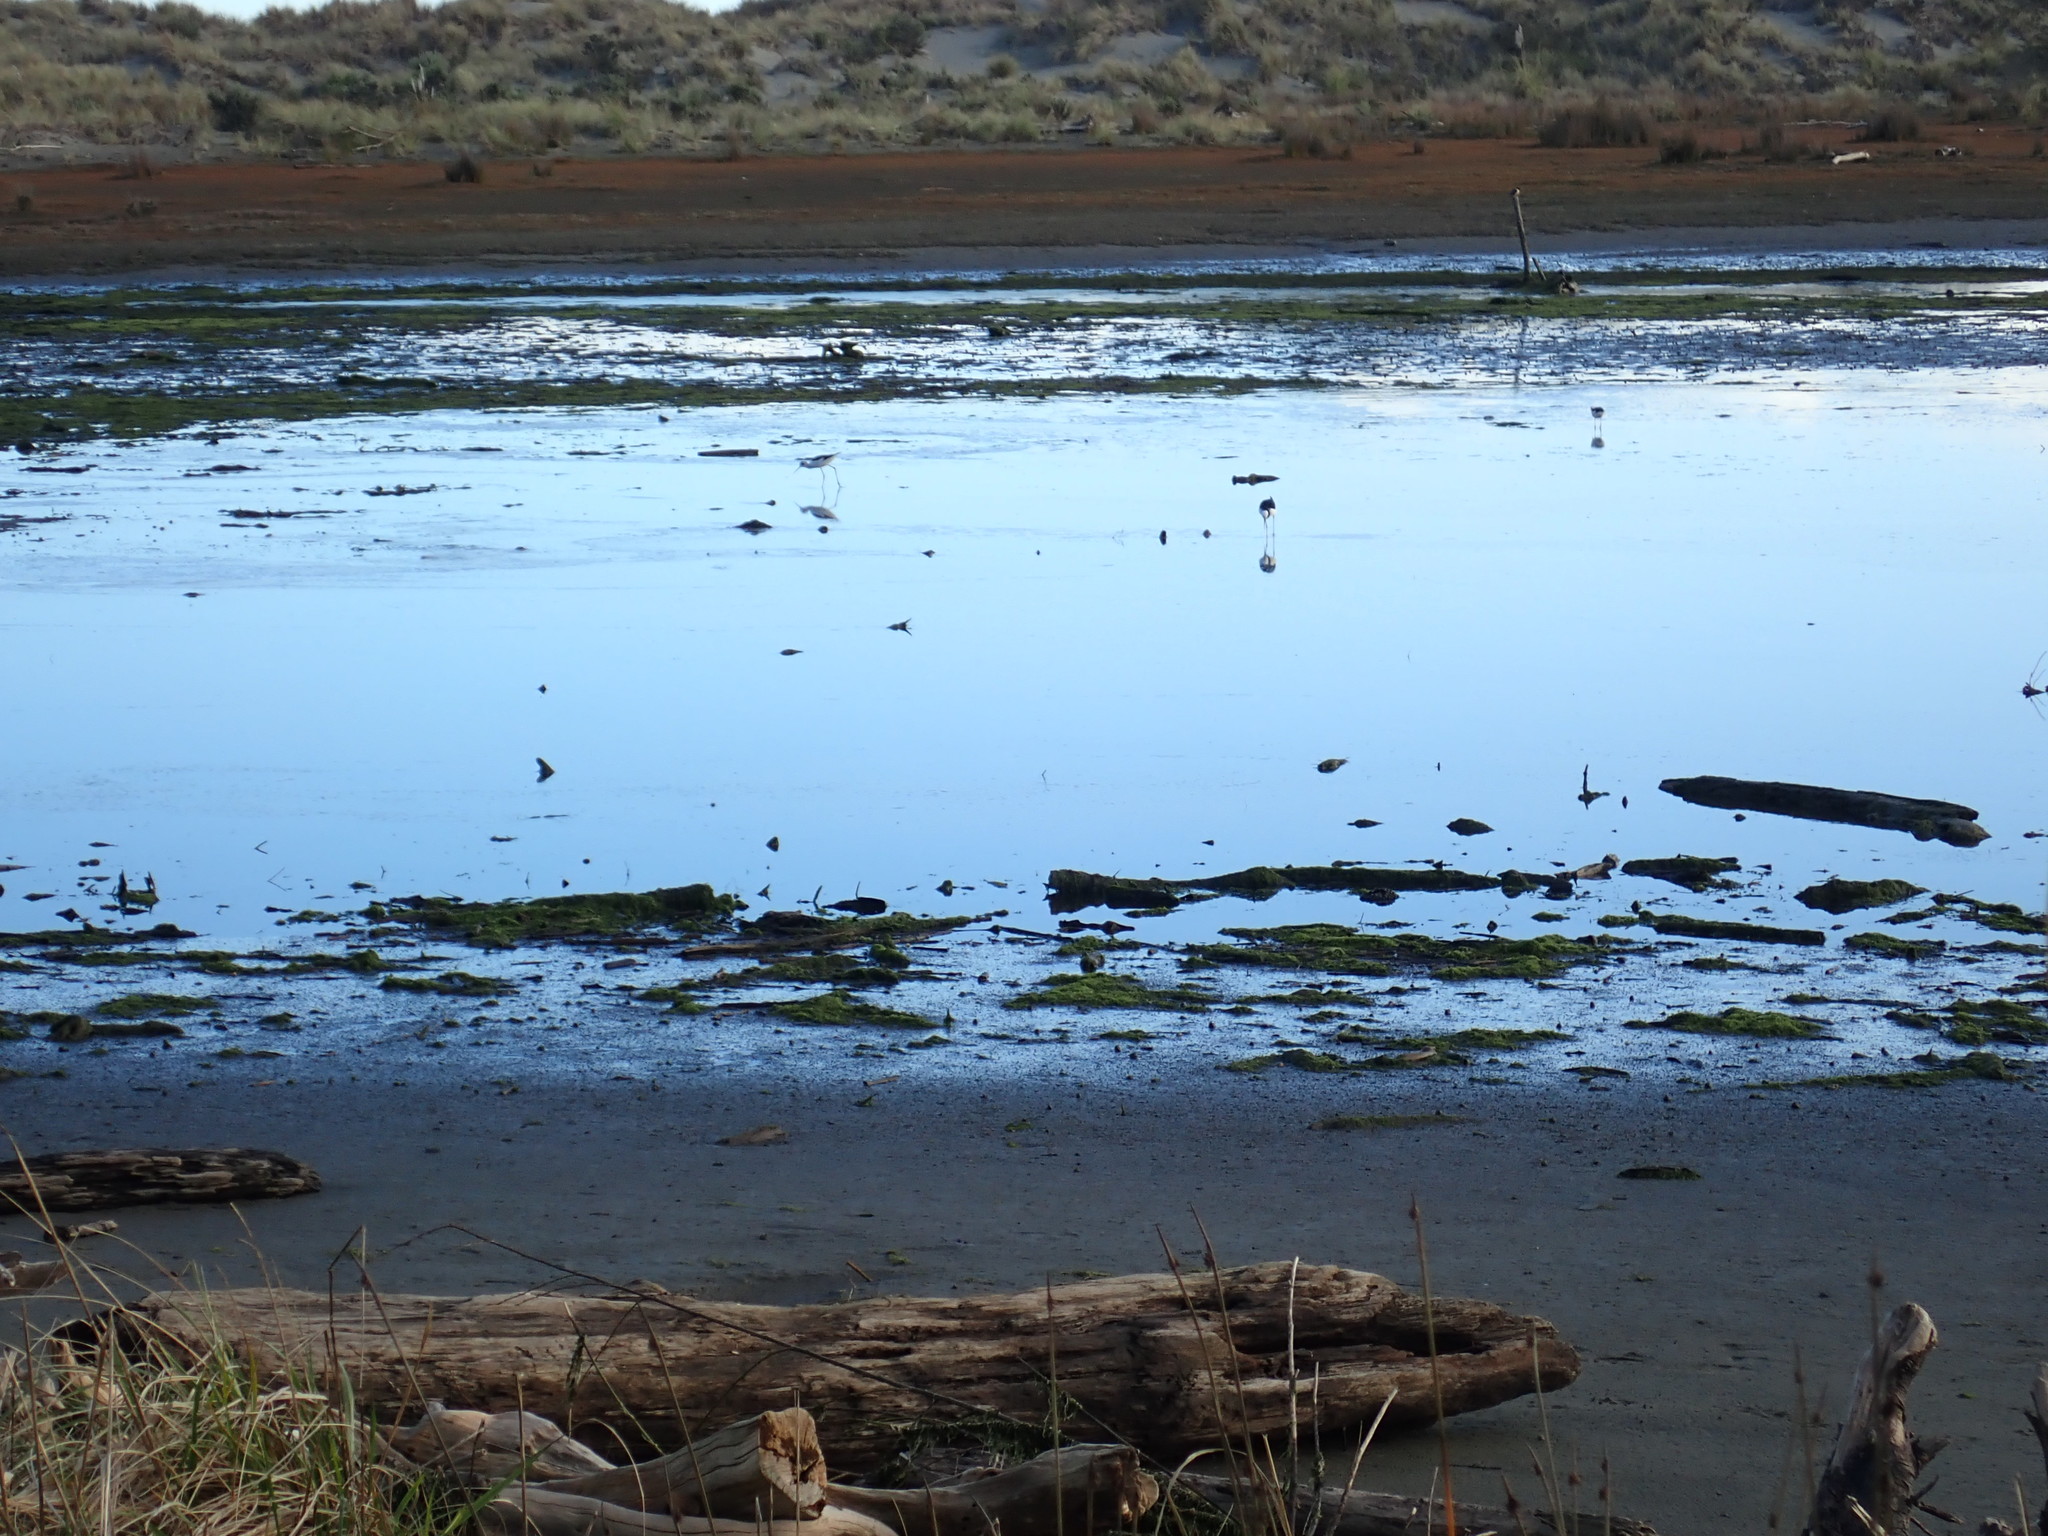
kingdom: Animalia
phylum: Chordata
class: Aves
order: Charadriiformes
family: Recurvirostridae
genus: Himantopus
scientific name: Himantopus leucocephalus
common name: White-headed stilt
